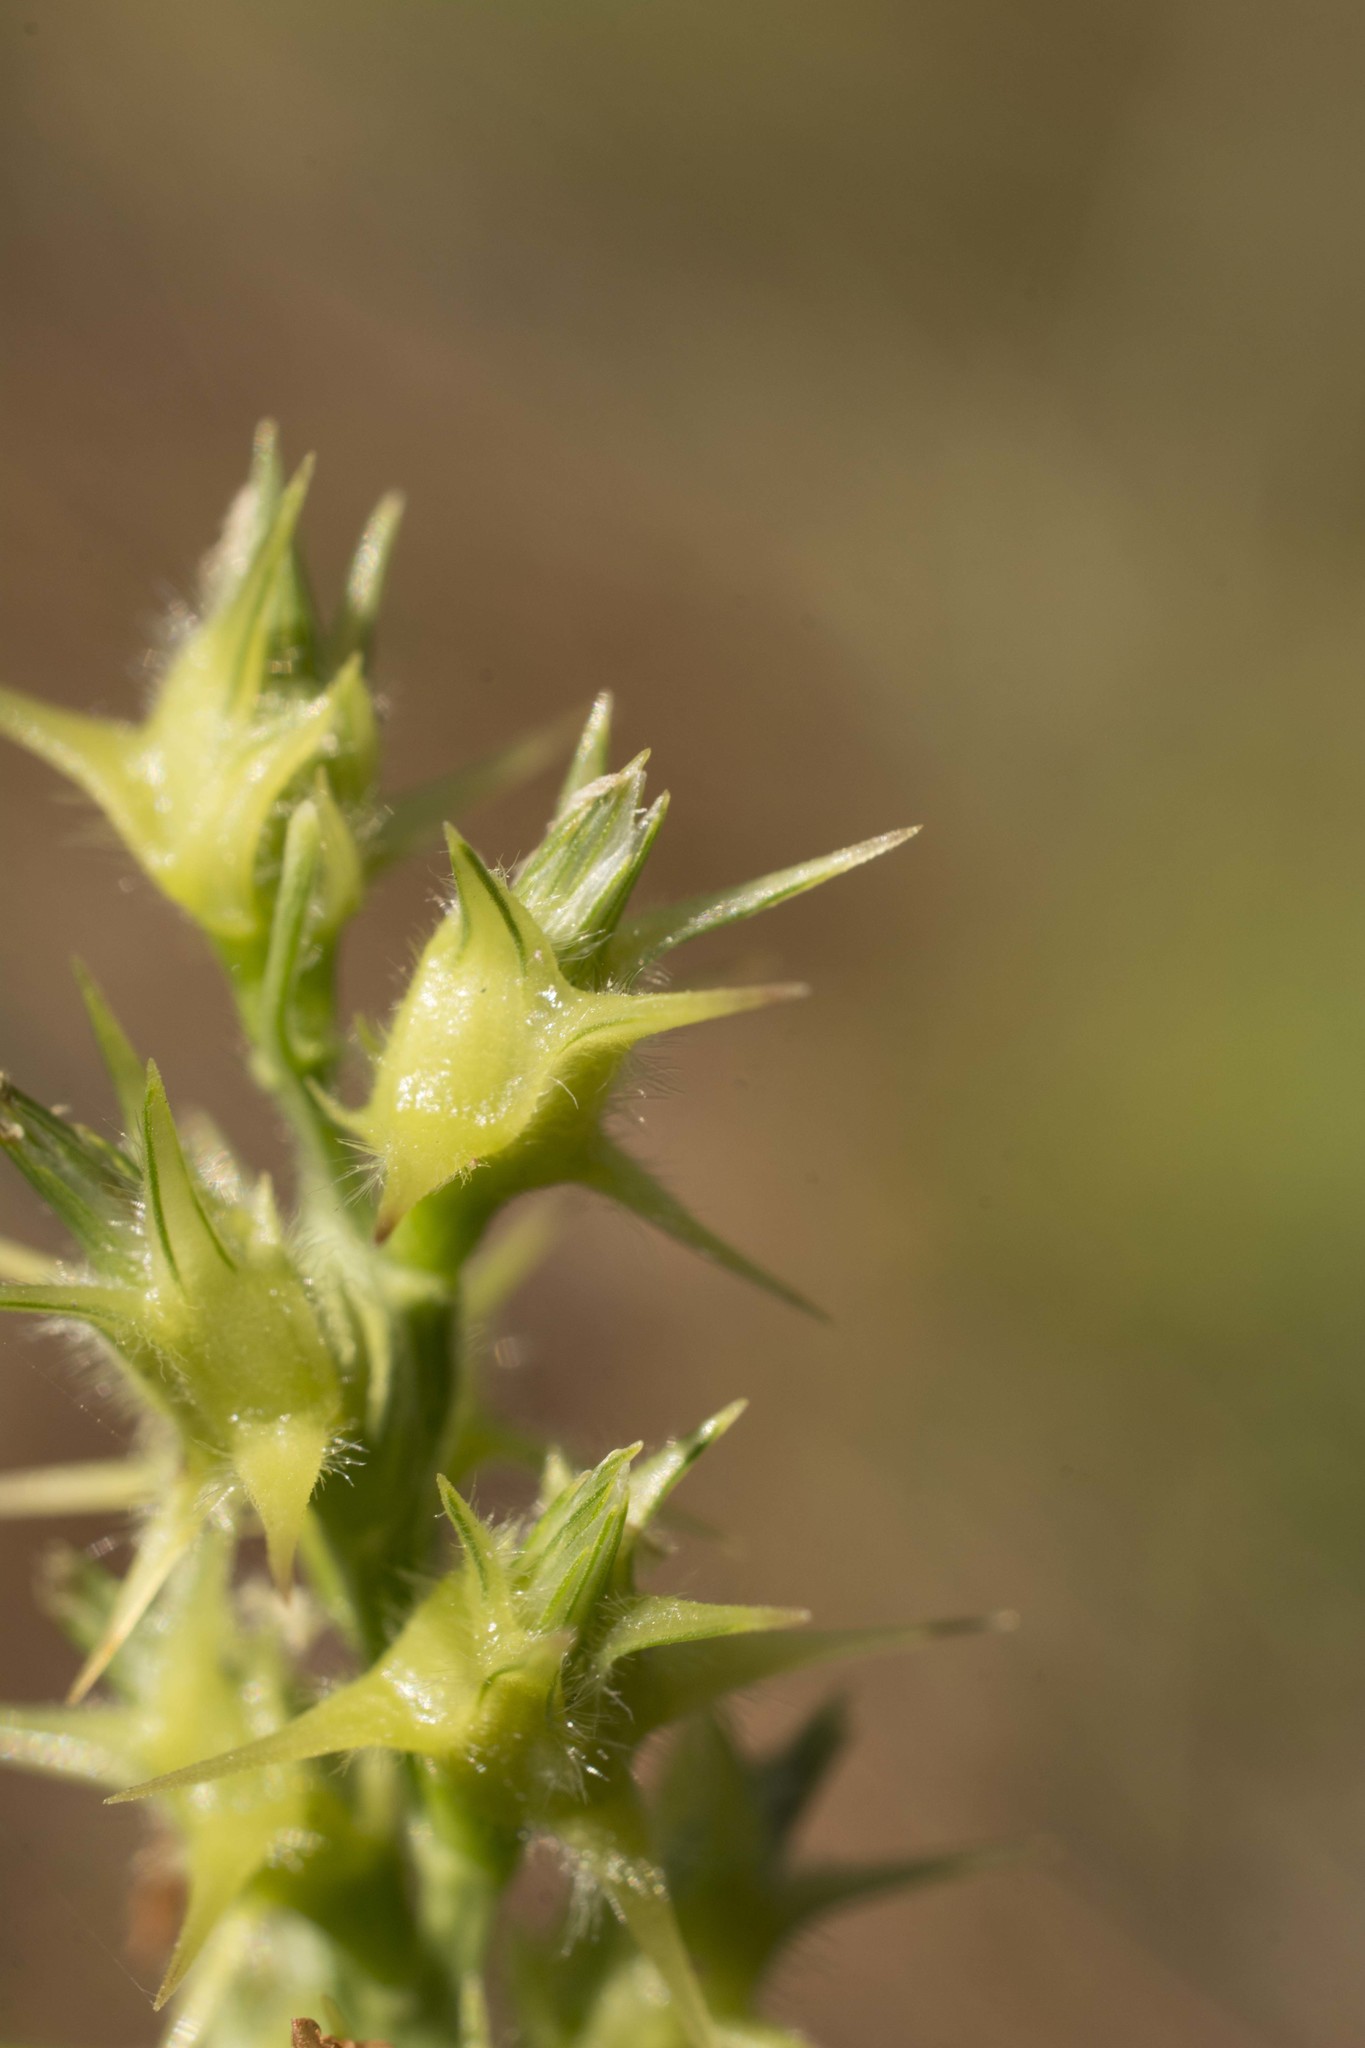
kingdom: Plantae
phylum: Tracheophyta
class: Liliopsida
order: Poales
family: Poaceae
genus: Cenchrus
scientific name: Cenchrus spinifex
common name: Coast sandbur
